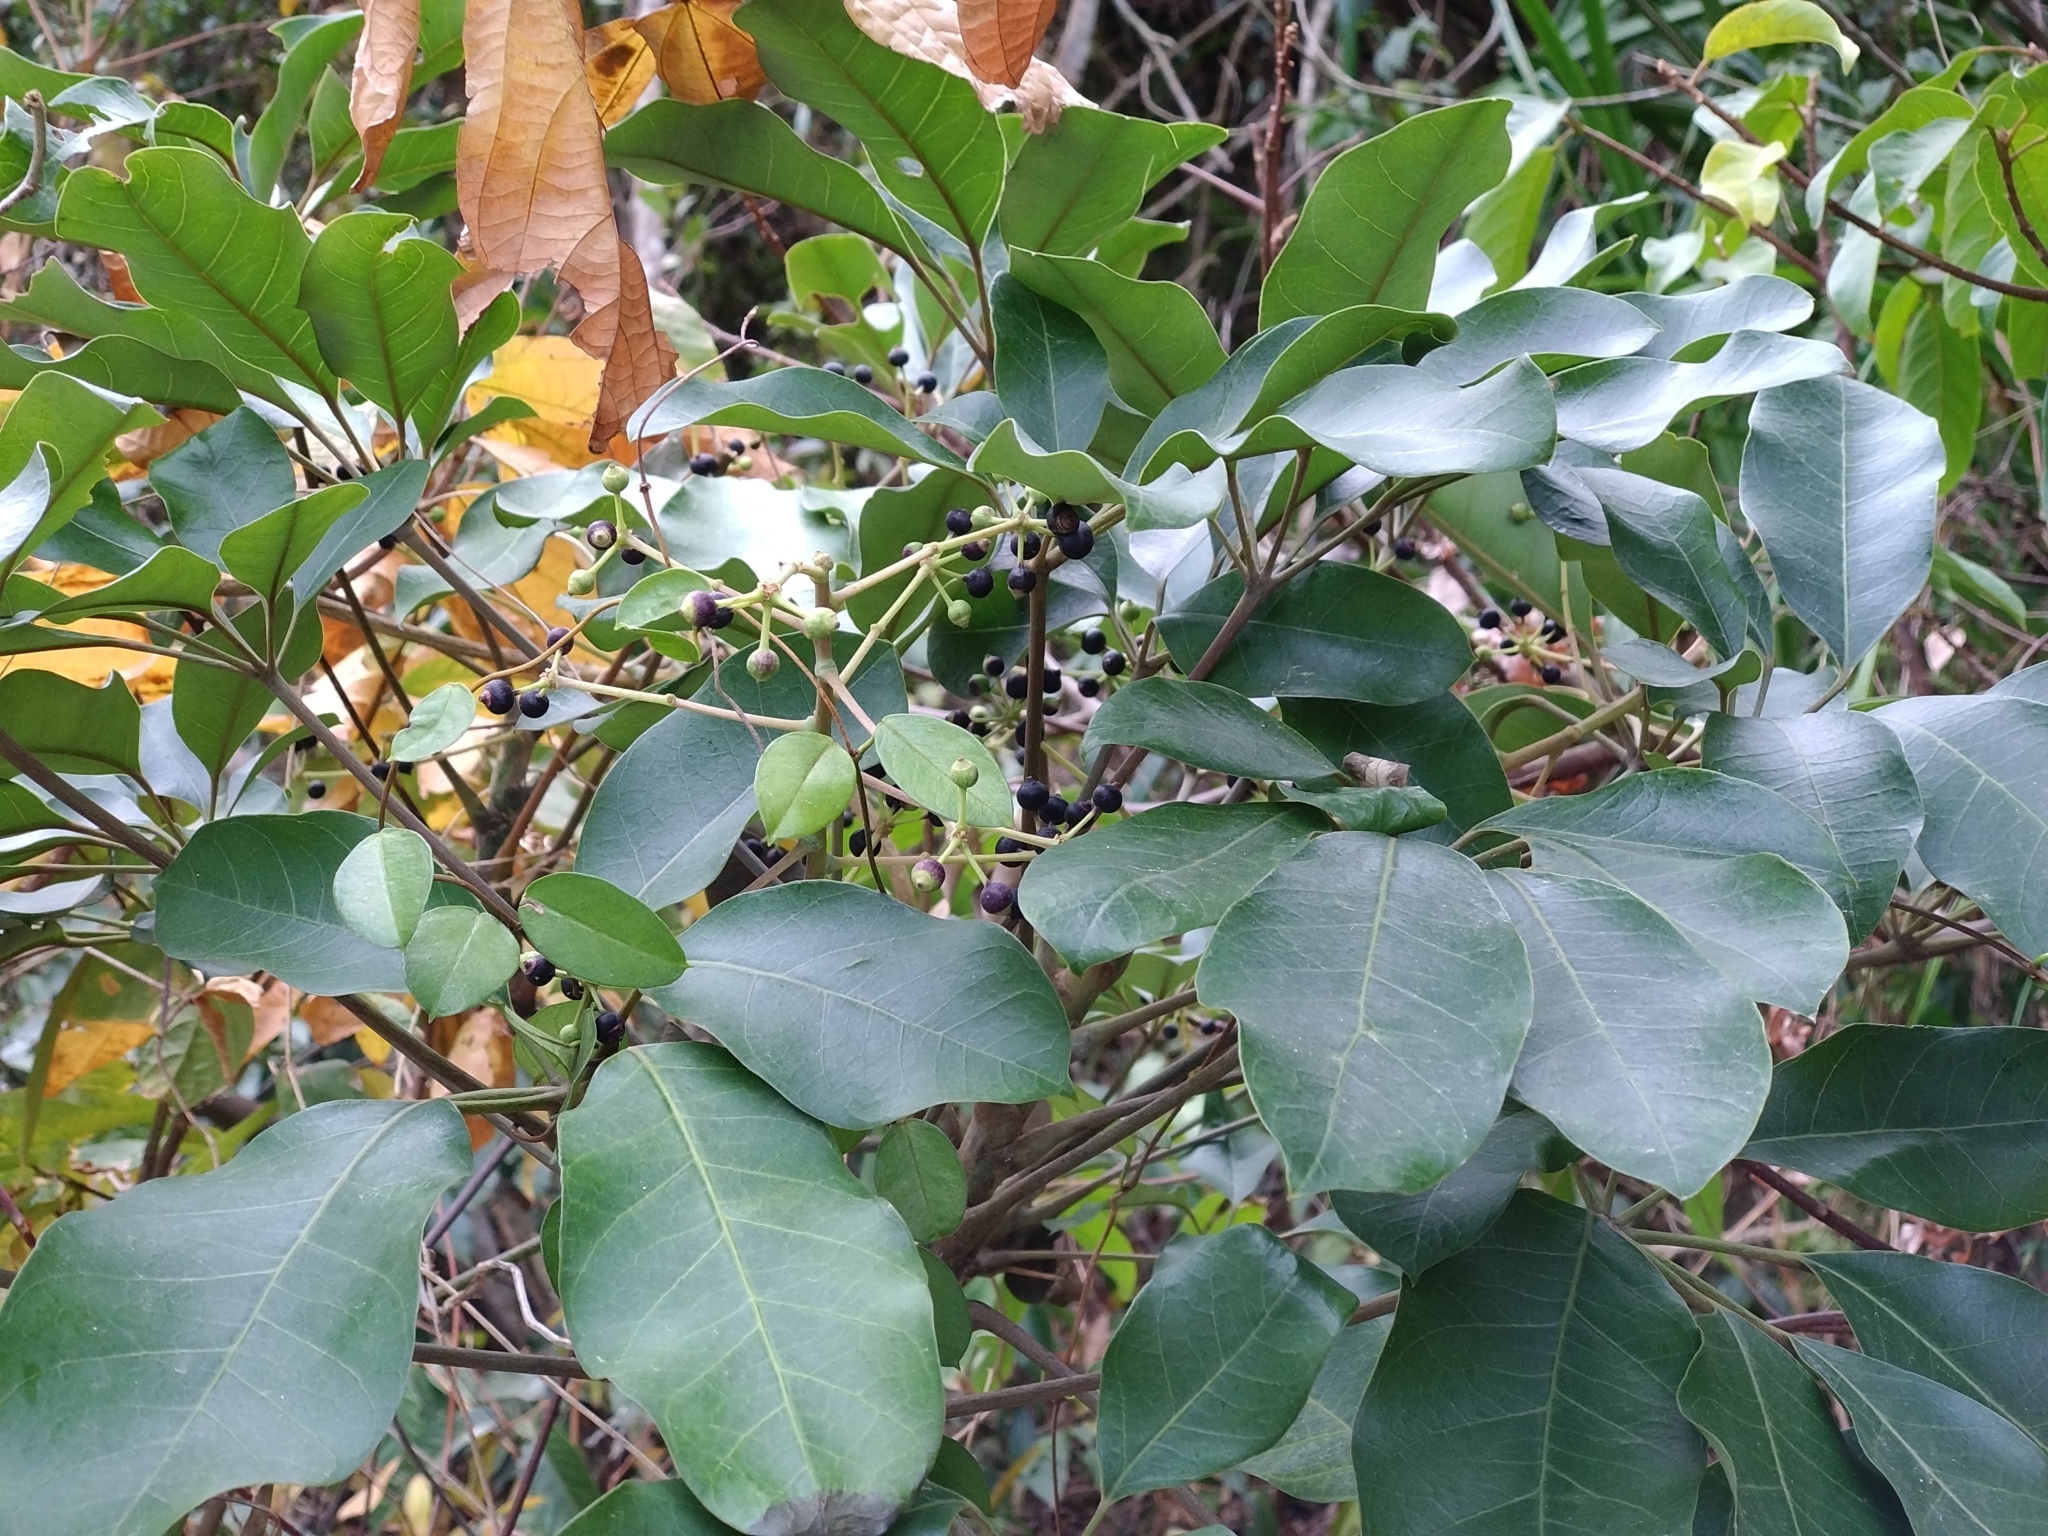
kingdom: Plantae
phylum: Tracheophyta
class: Magnoliopsida
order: Apiales
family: Araliaceae
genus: Heptapleurum
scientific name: Heptapleurum heptaphyllum
